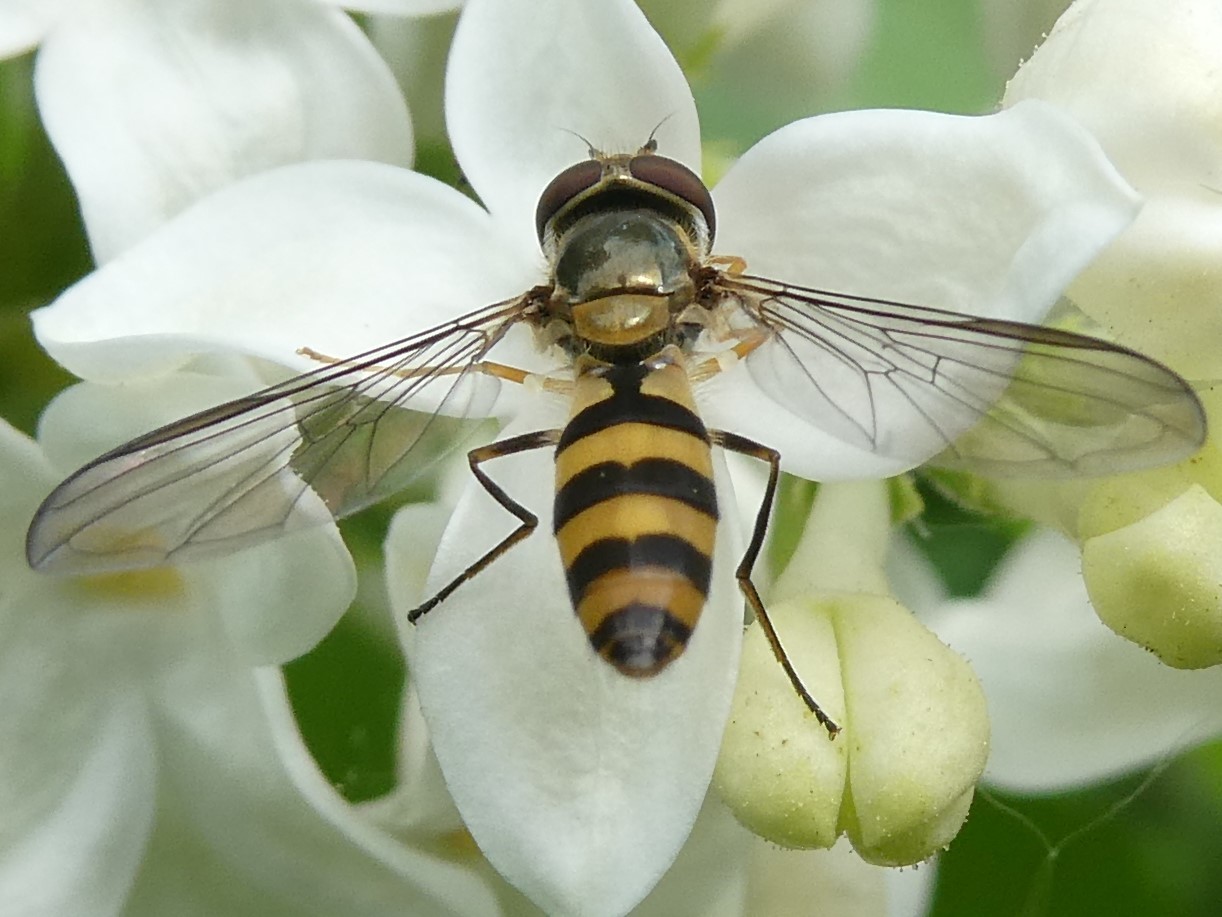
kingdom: Animalia
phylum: Arthropoda
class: Insecta
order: Diptera
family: Syrphidae
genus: Meliscaeva
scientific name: Meliscaeva cinctella
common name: American thintail fly
